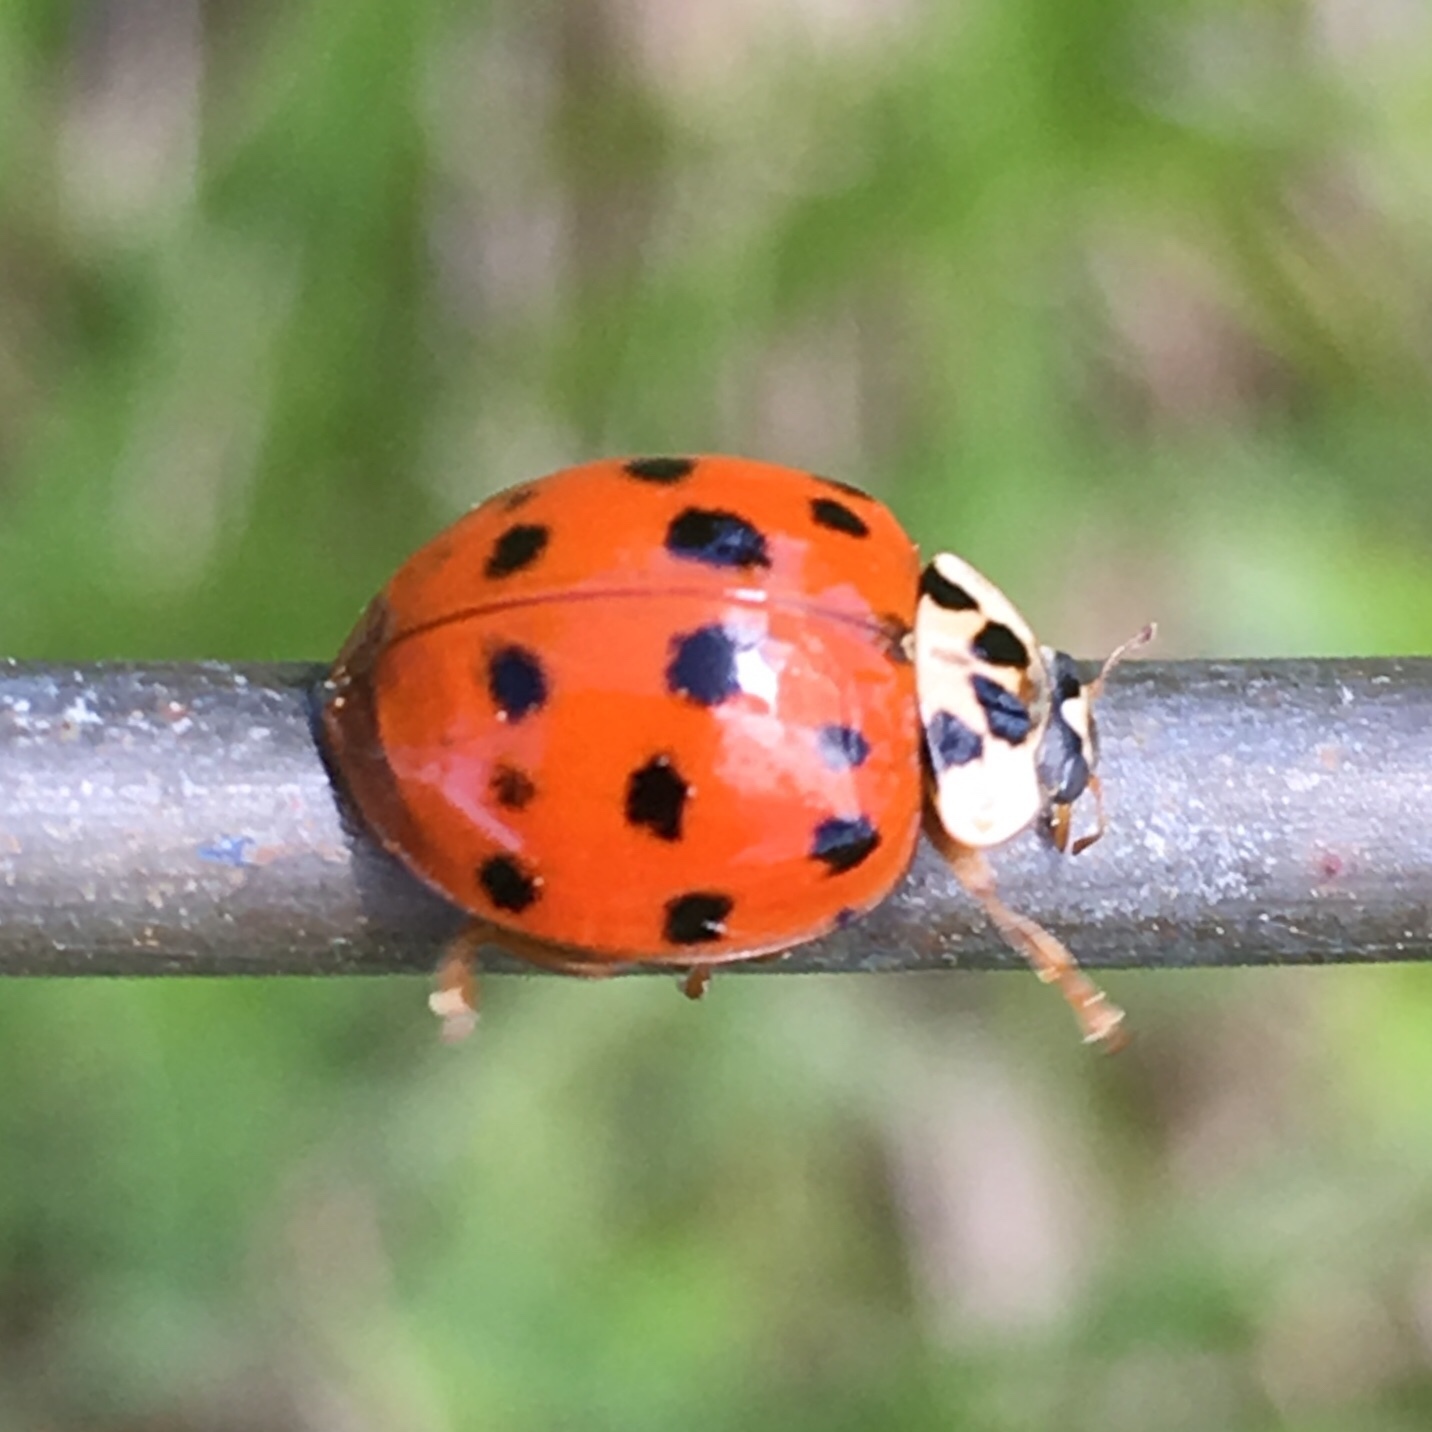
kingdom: Animalia
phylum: Arthropoda
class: Insecta
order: Coleoptera
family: Coccinellidae
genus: Harmonia
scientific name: Harmonia axyridis
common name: Harlequin ladybird
